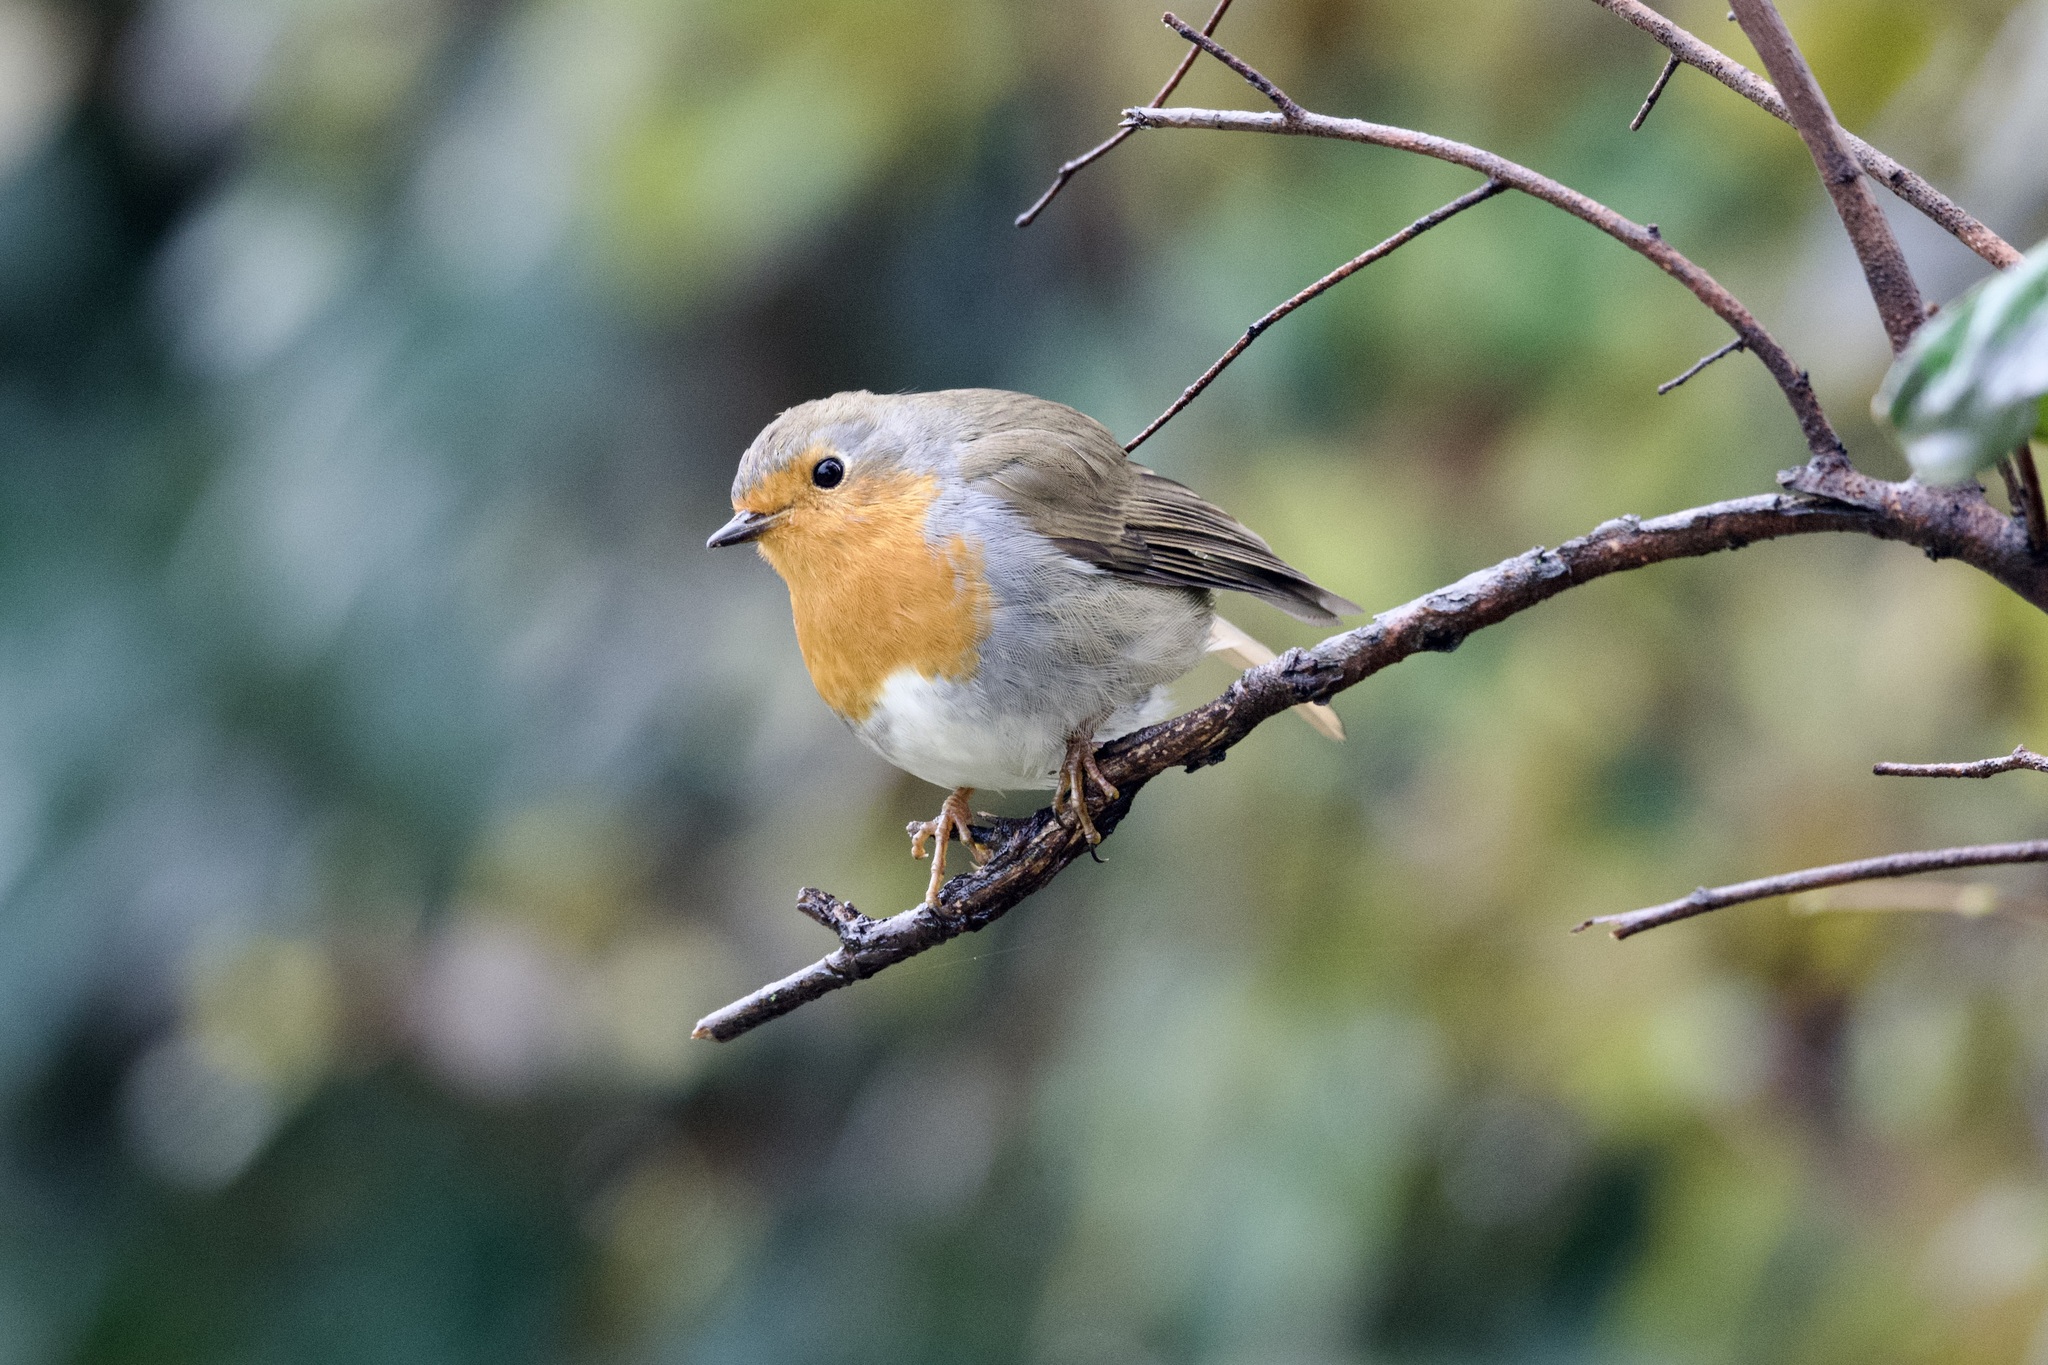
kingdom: Animalia
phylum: Chordata
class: Aves
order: Passeriformes
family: Muscicapidae
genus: Erithacus
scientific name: Erithacus rubecula
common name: European robin
